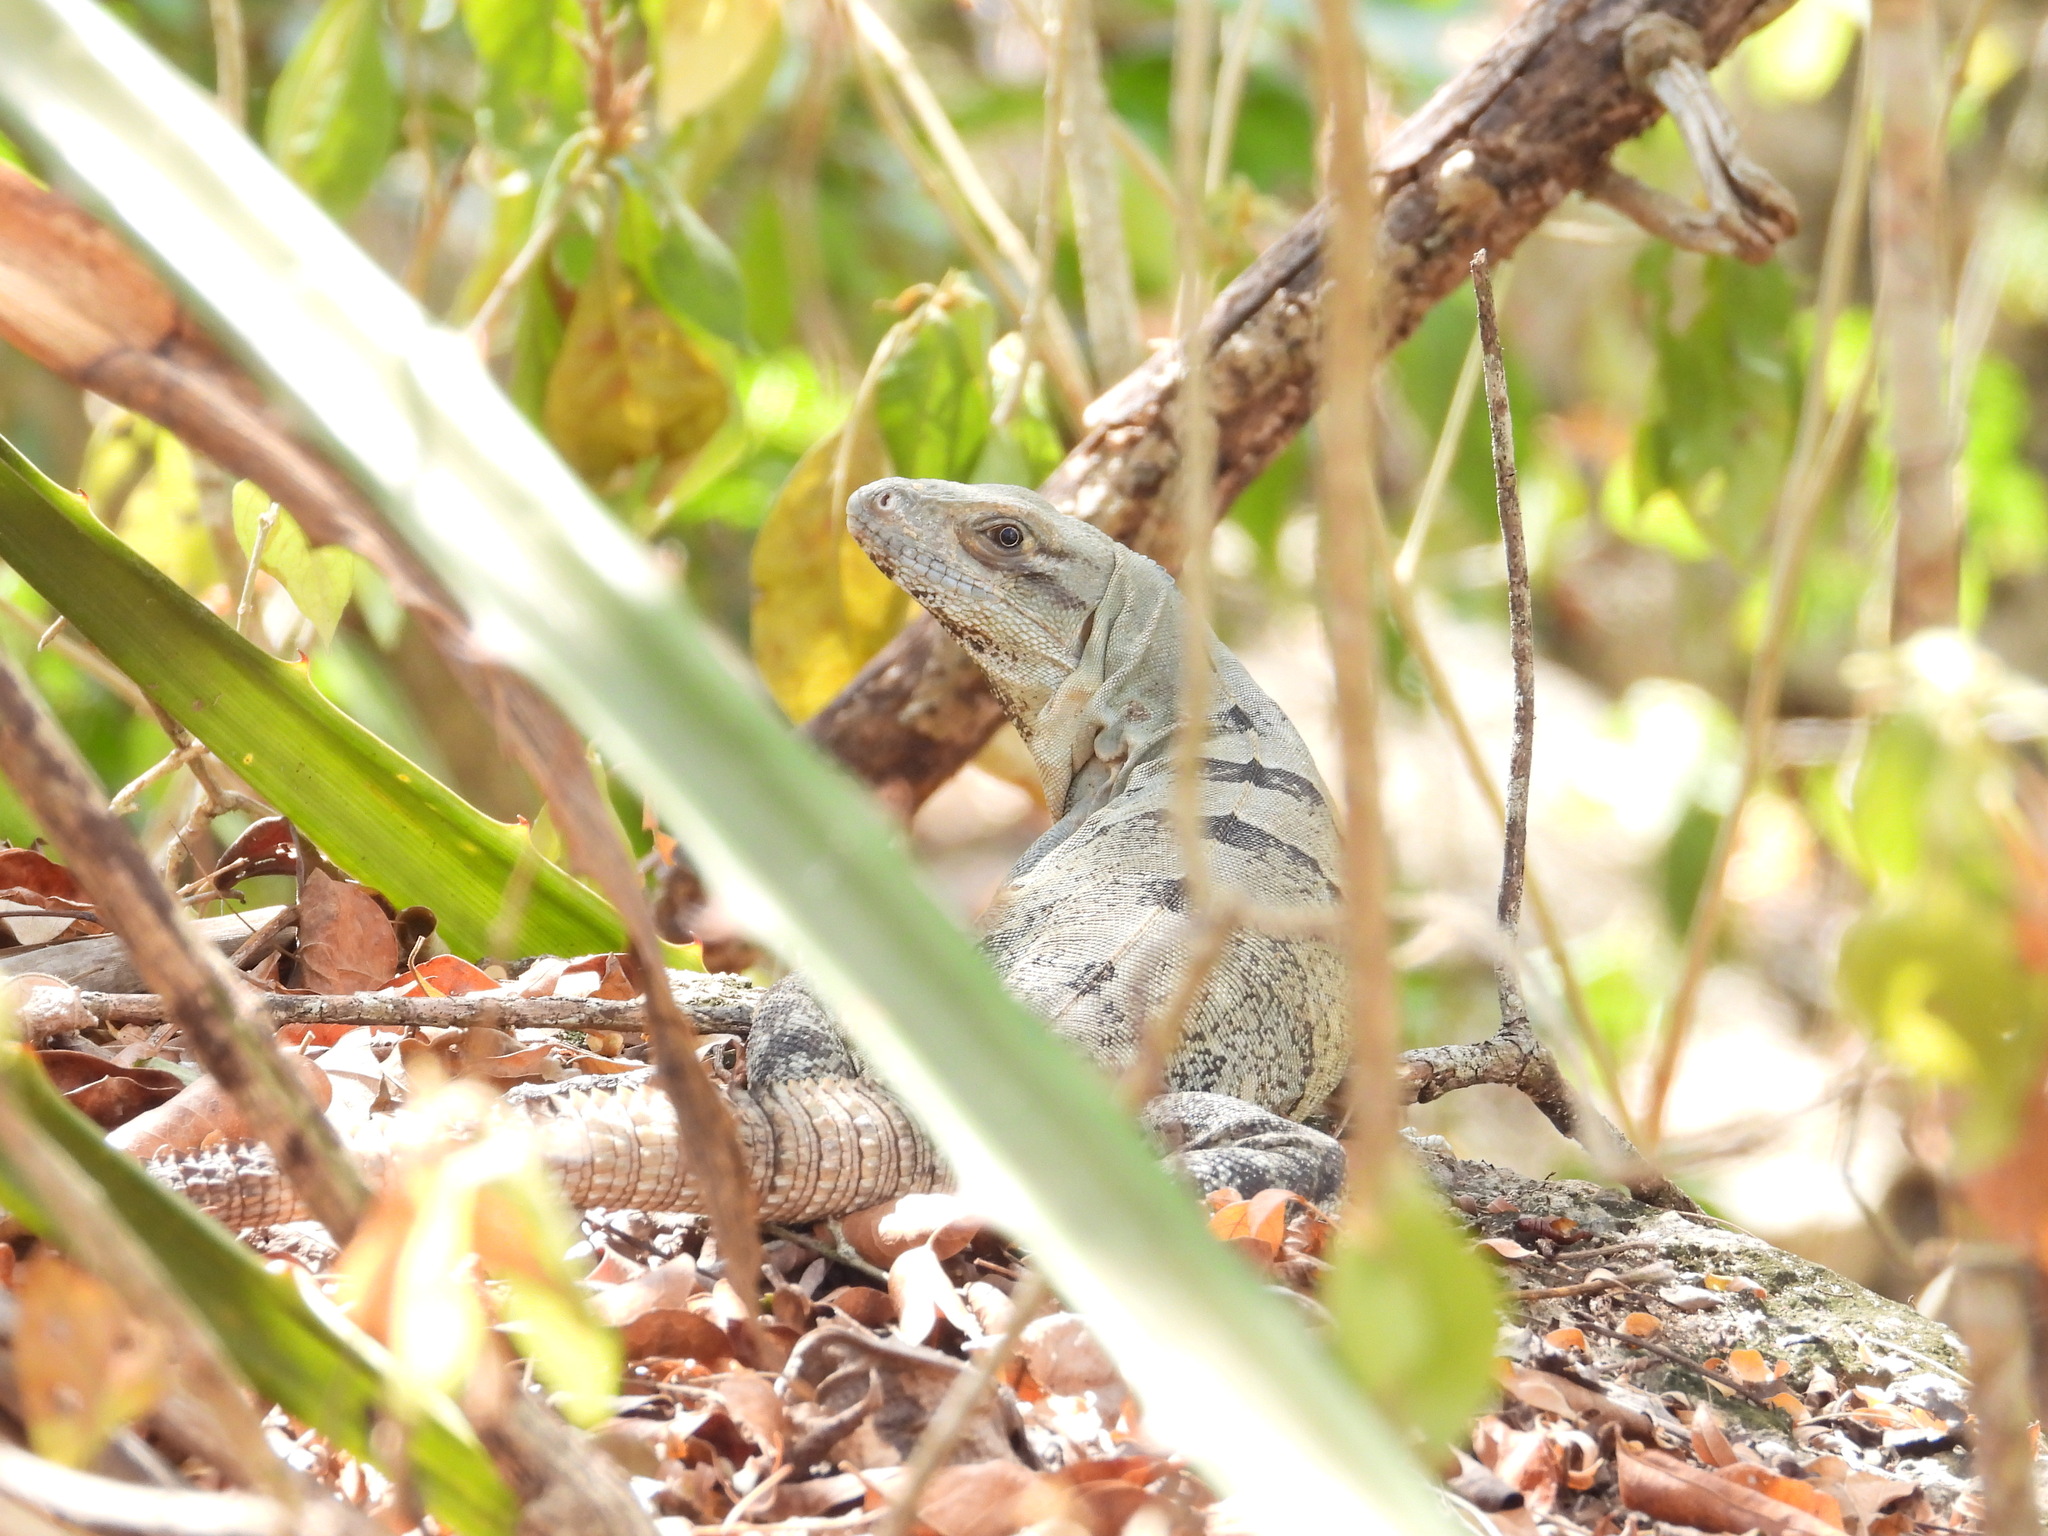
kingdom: Animalia
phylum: Chordata
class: Squamata
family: Iguanidae
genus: Ctenosaura
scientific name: Ctenosaura similis
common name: Black spiny-tailed iguana
